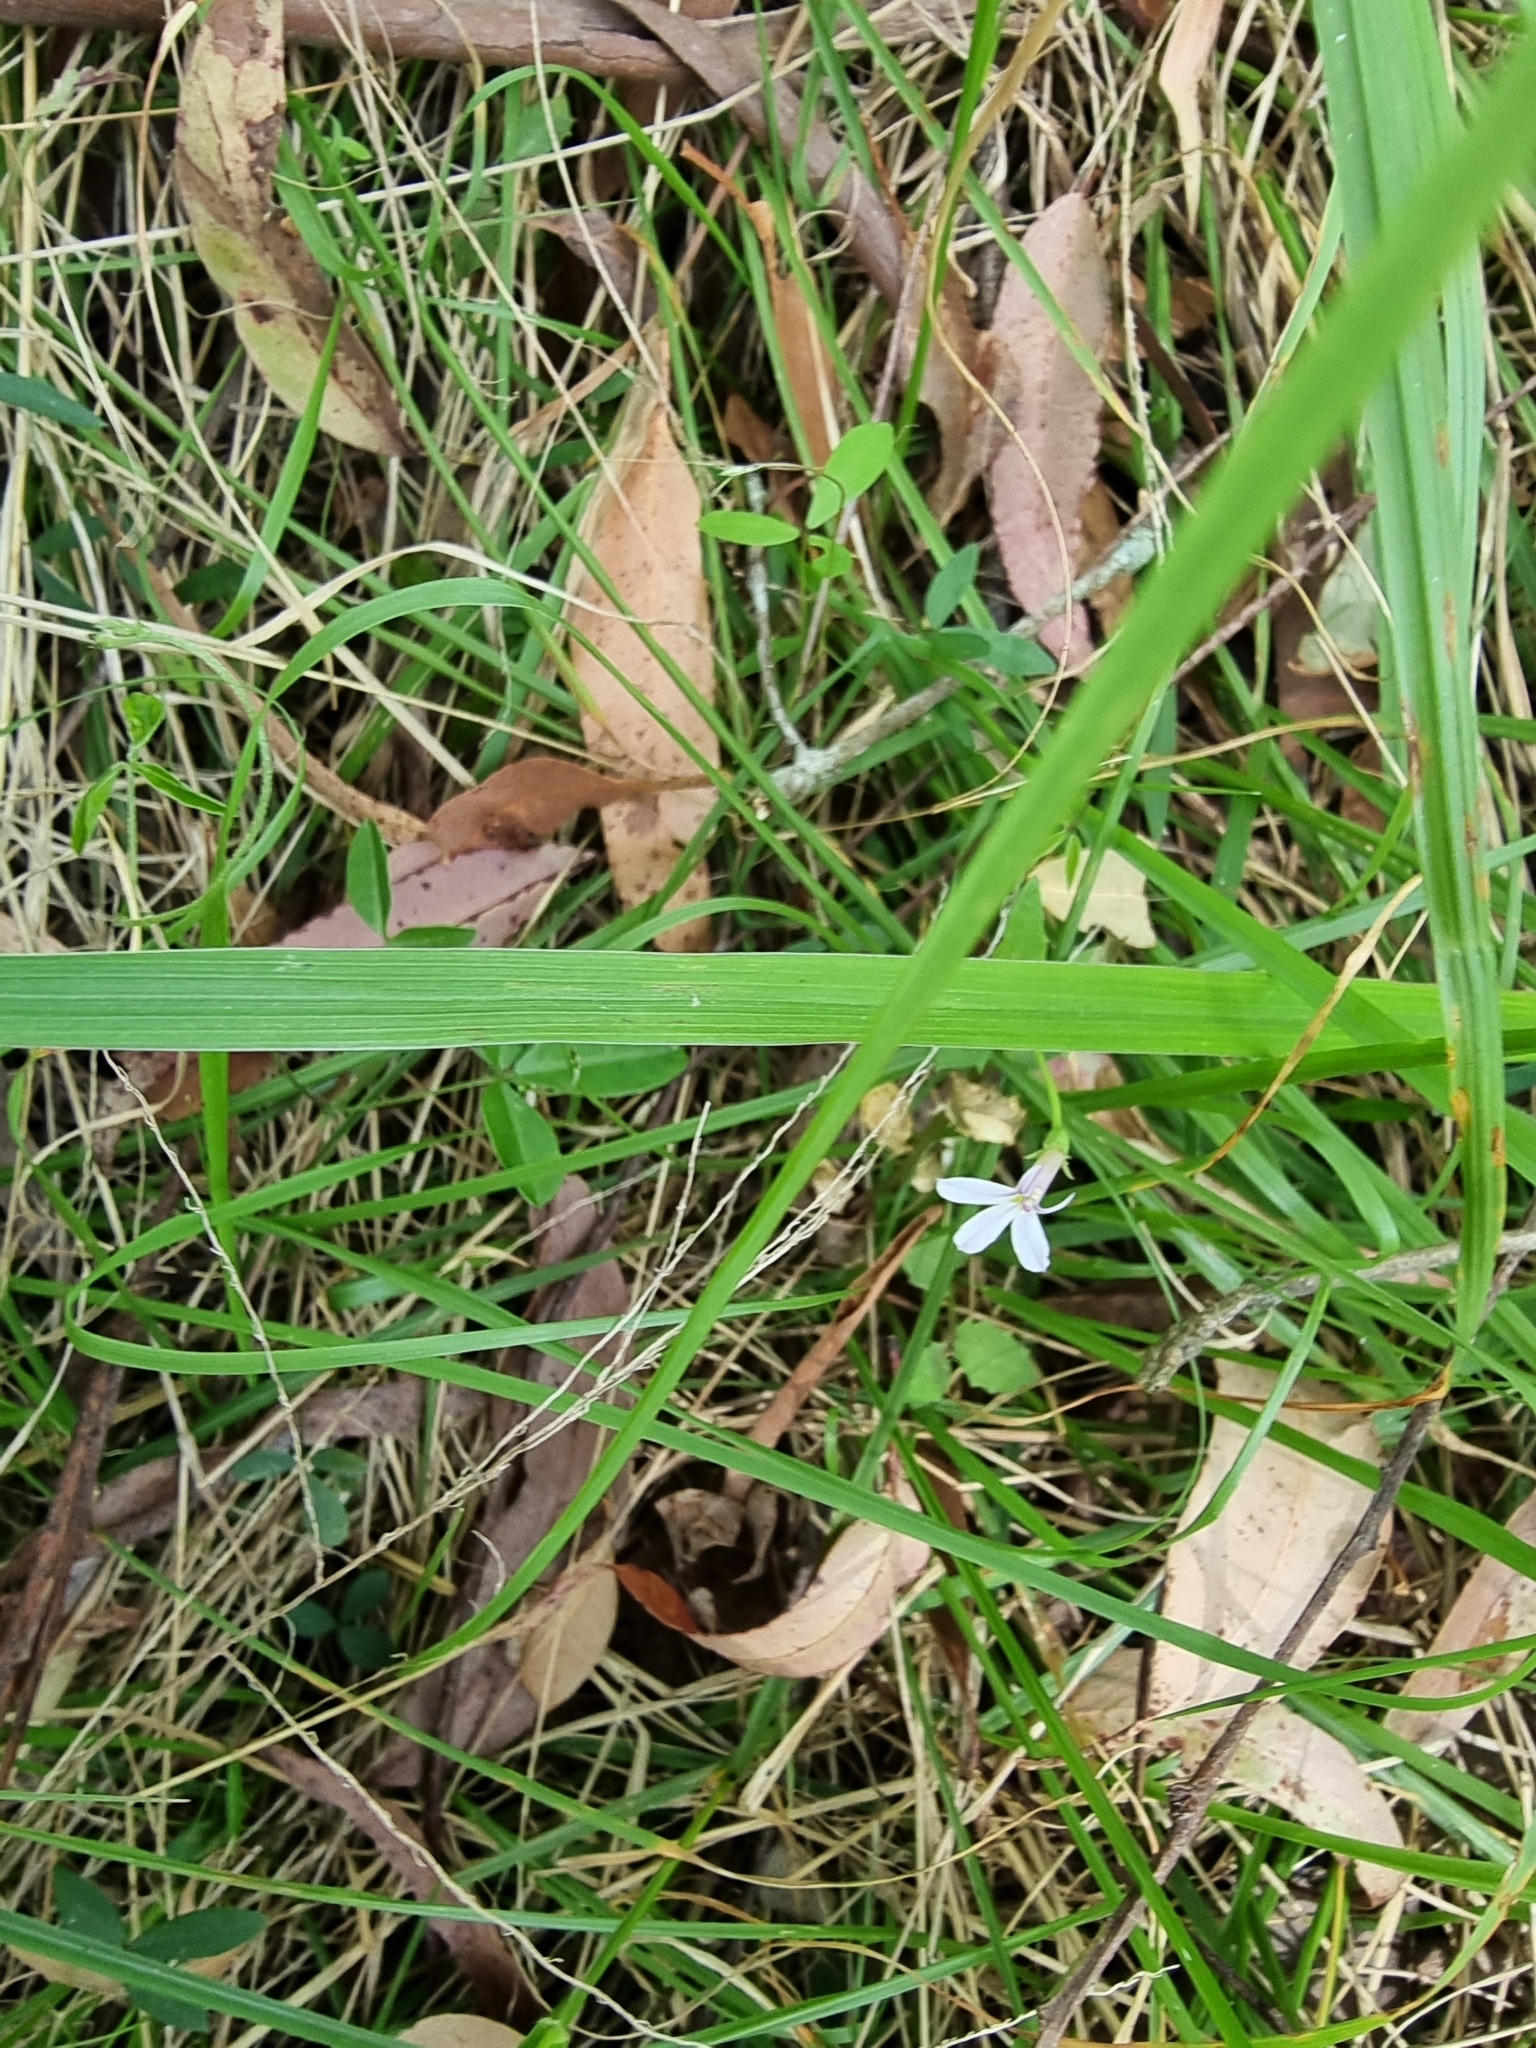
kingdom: Plantae
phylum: Tracheophyta
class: Magnoliopsida
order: Asterales
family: Campanulaceae
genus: Lobelia
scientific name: Lobelia purpurascens
